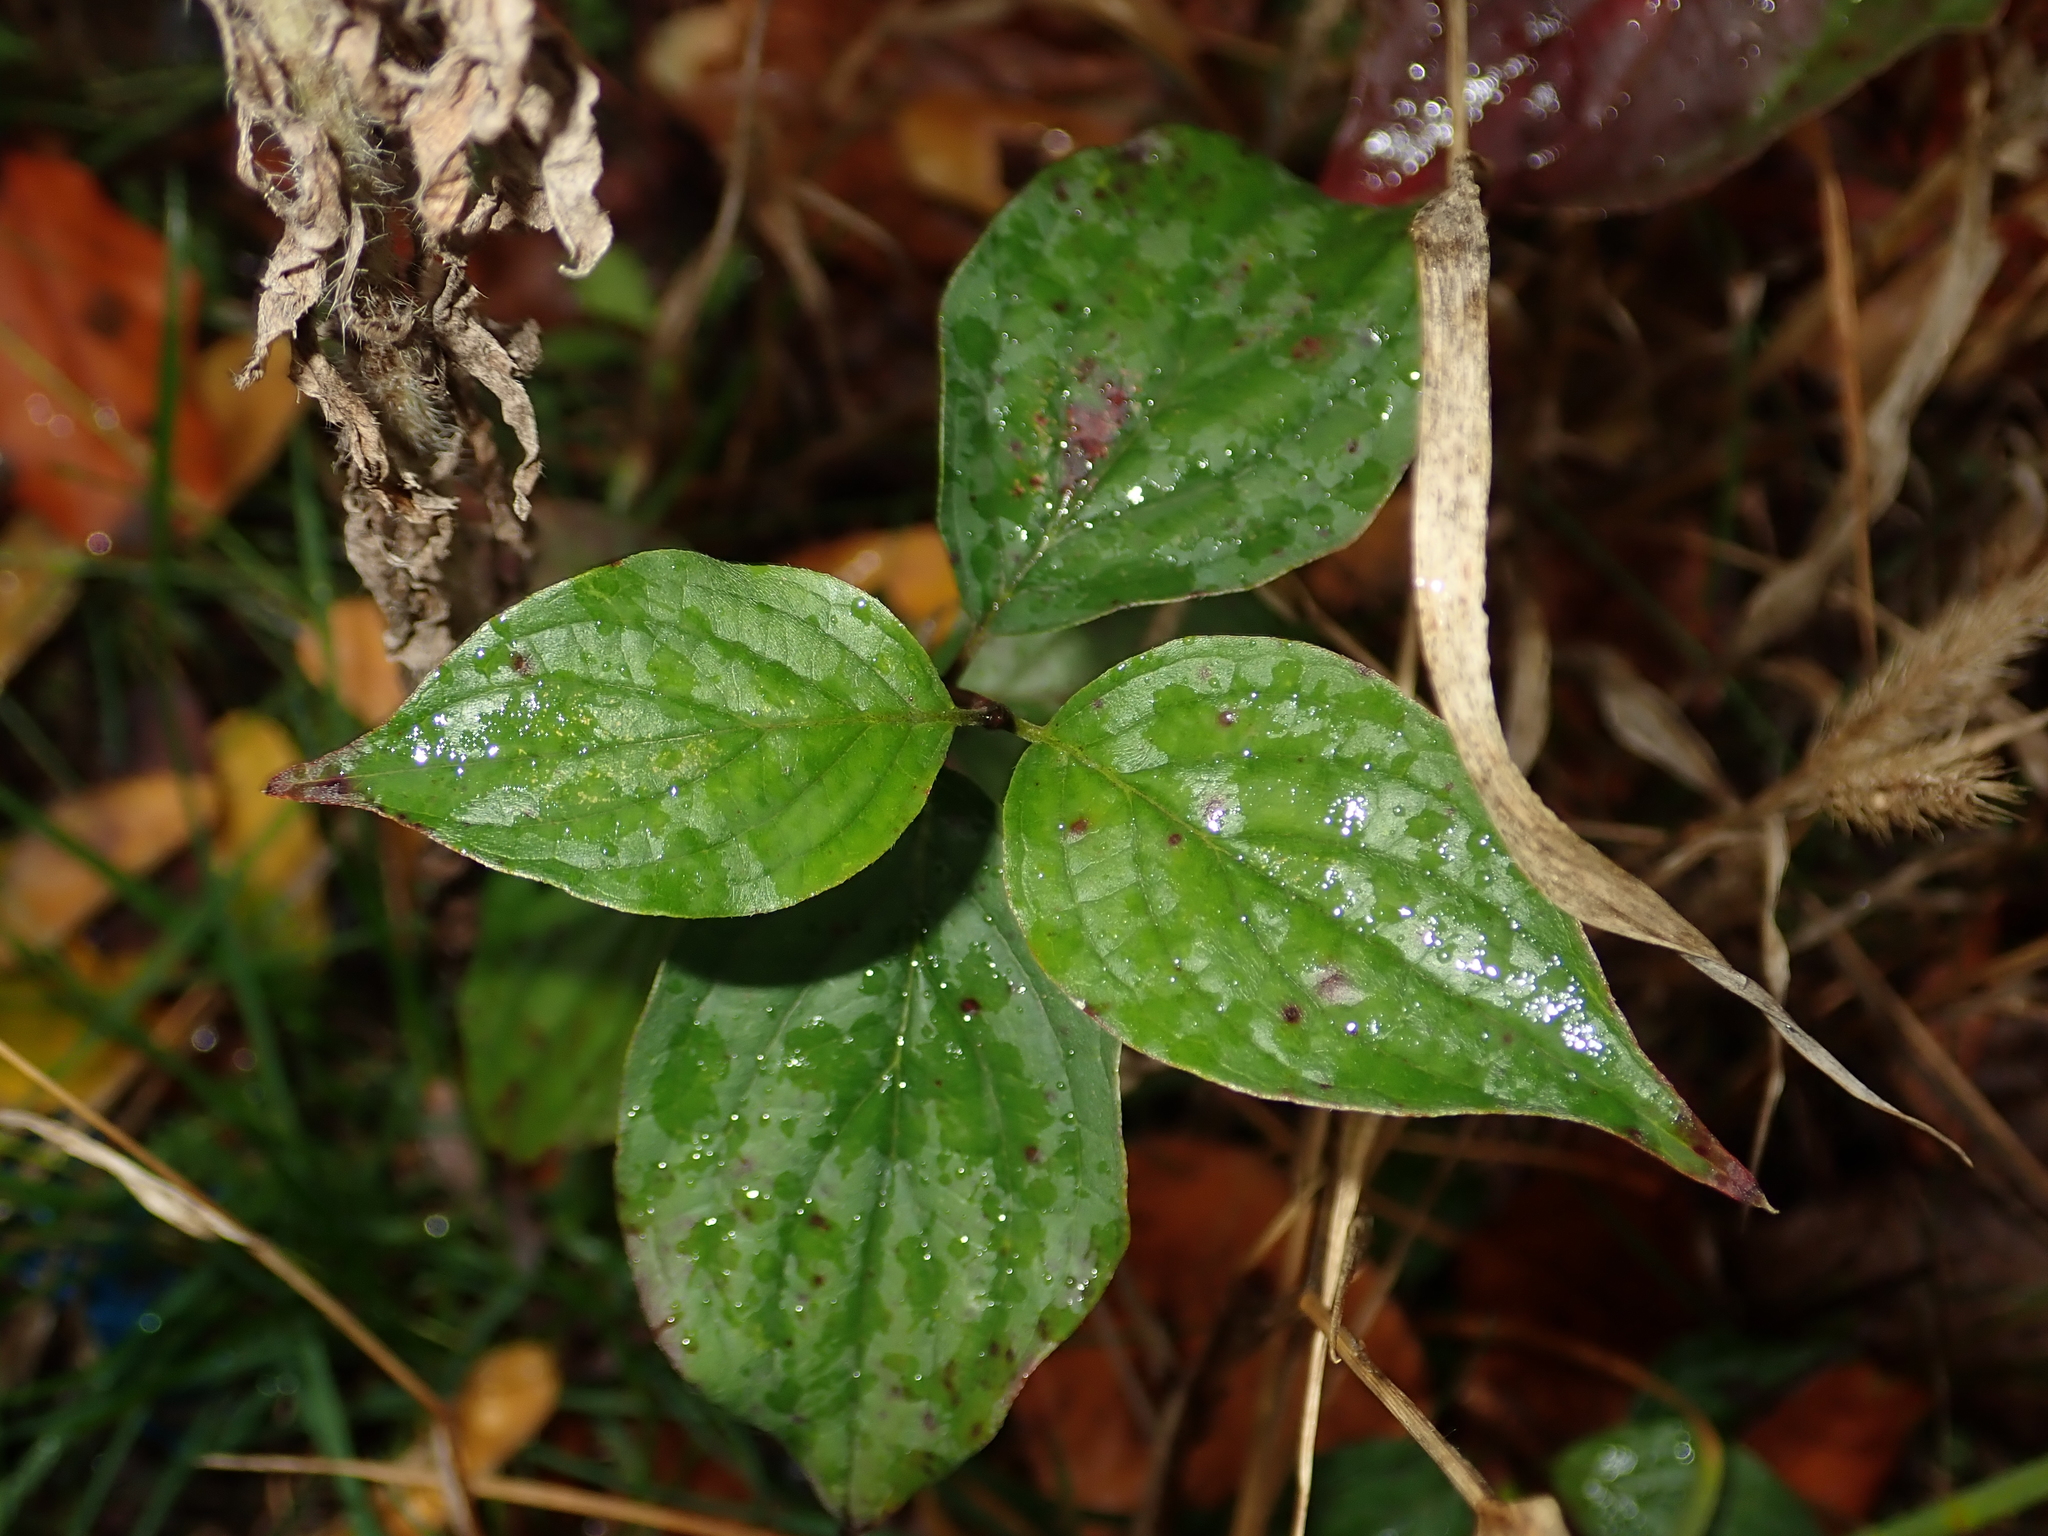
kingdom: Plantae
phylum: Tracheophyta
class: Magnoliopsida
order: Cornales
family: Cornaceae
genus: Cornus
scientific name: Cornus sanguinea
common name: Dogwood
